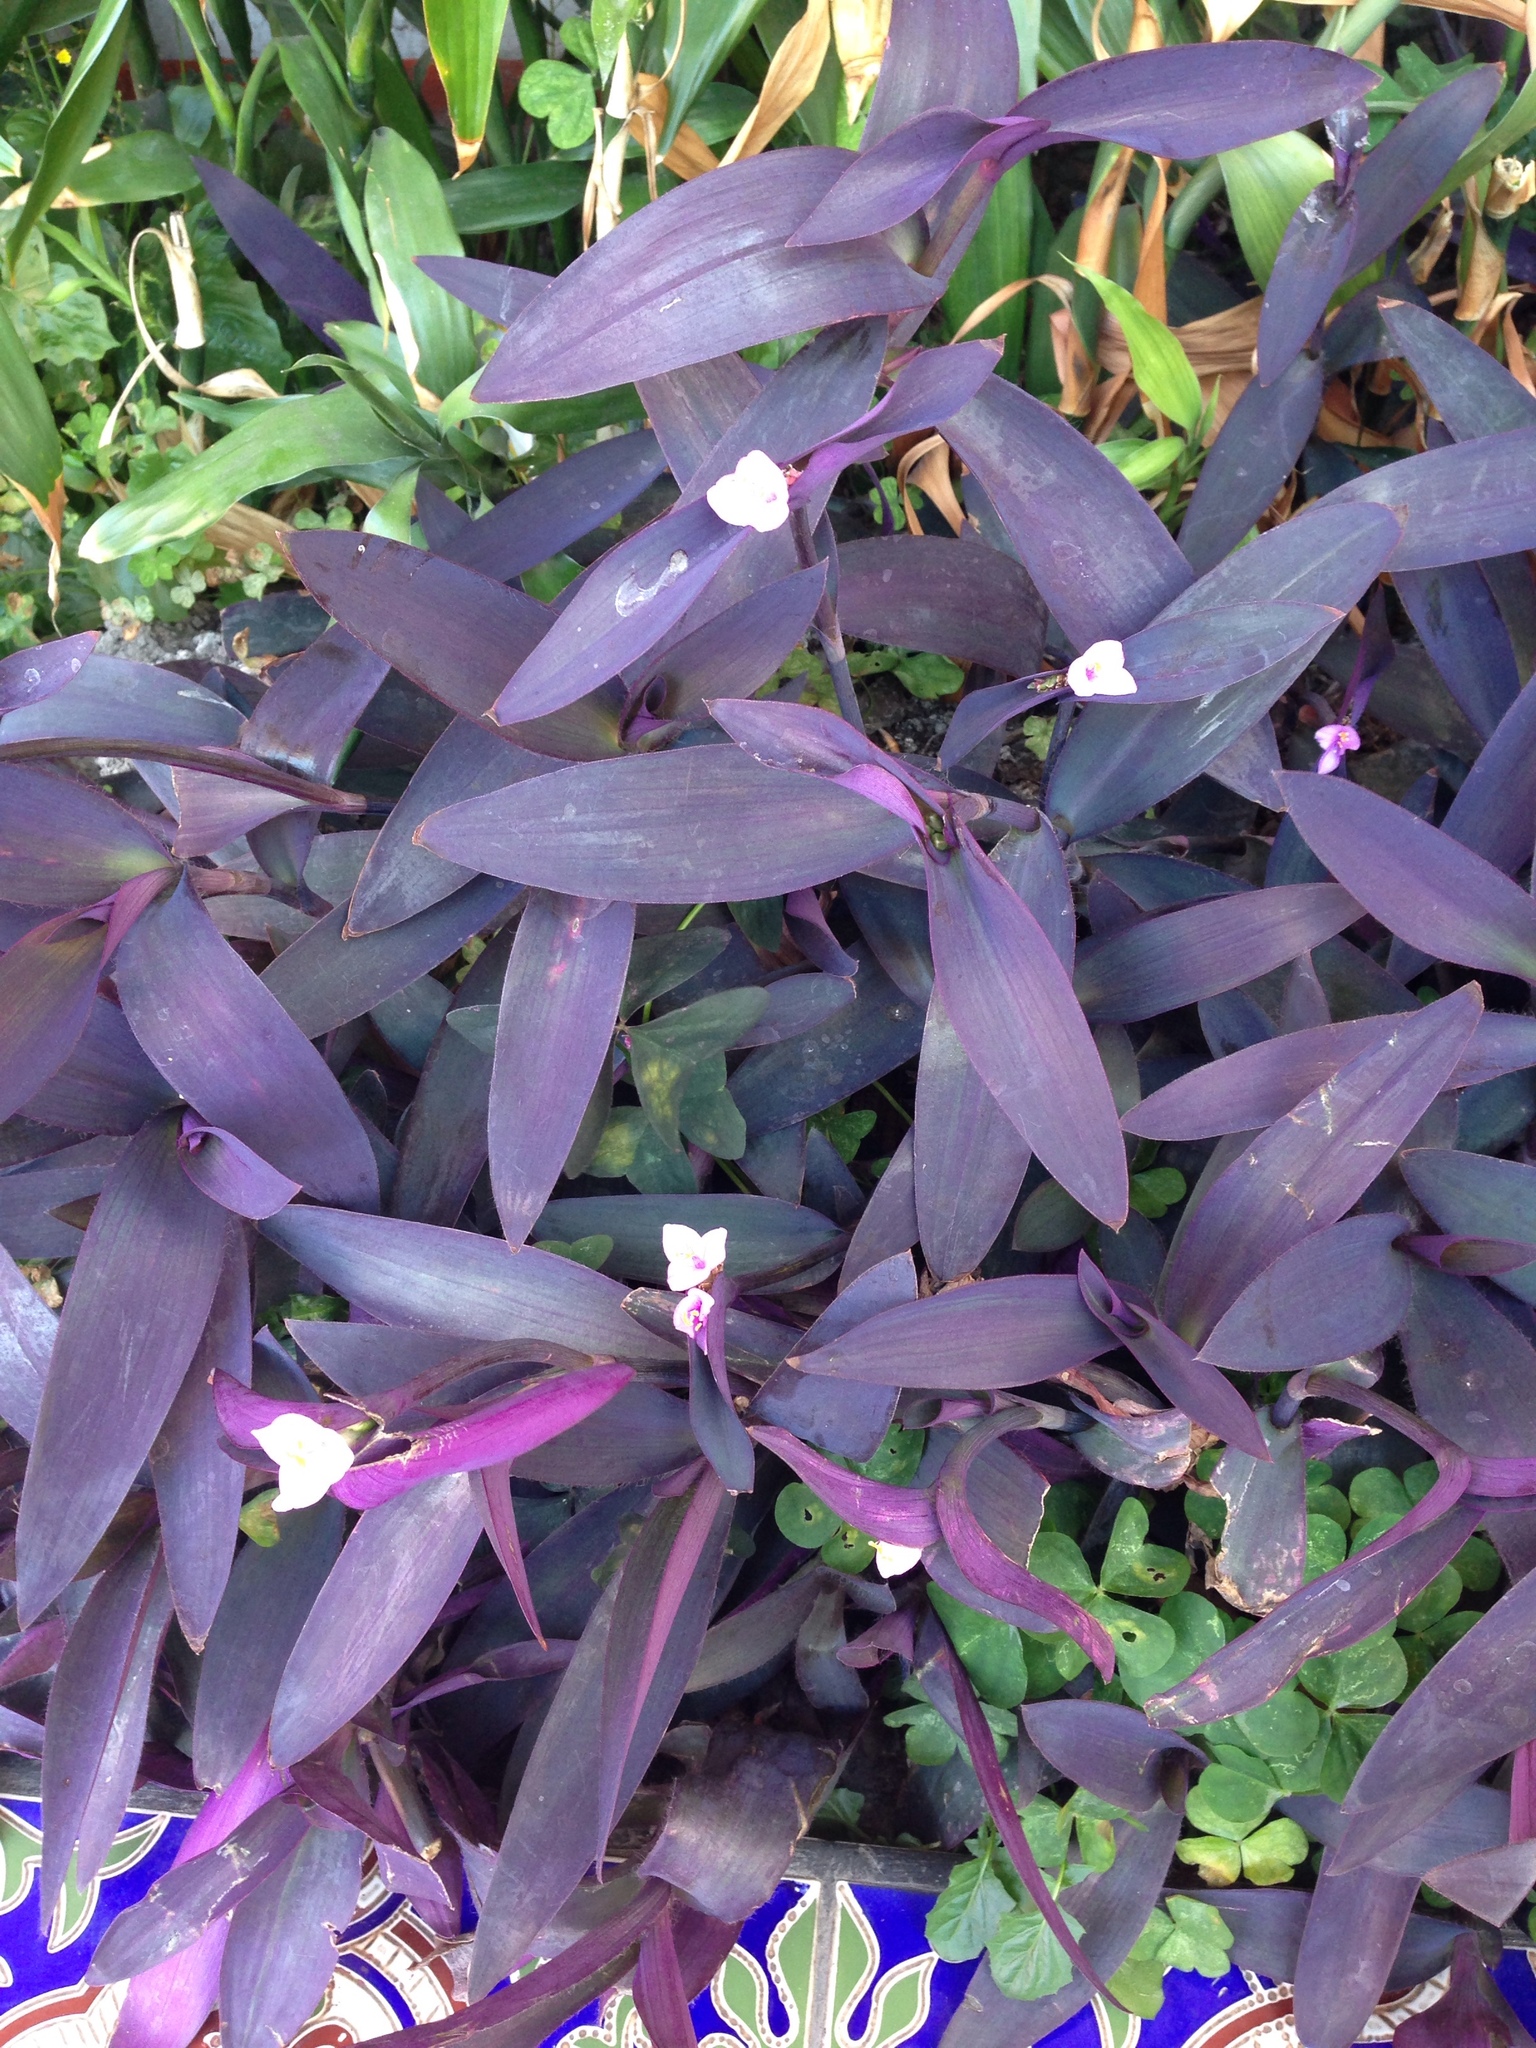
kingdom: Plantae
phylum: Tracheophyta
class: Liliopsida
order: Commelinales
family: Commelinaceae
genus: Tradescantia
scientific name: Tradescantia pallida
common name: Purpleheart
